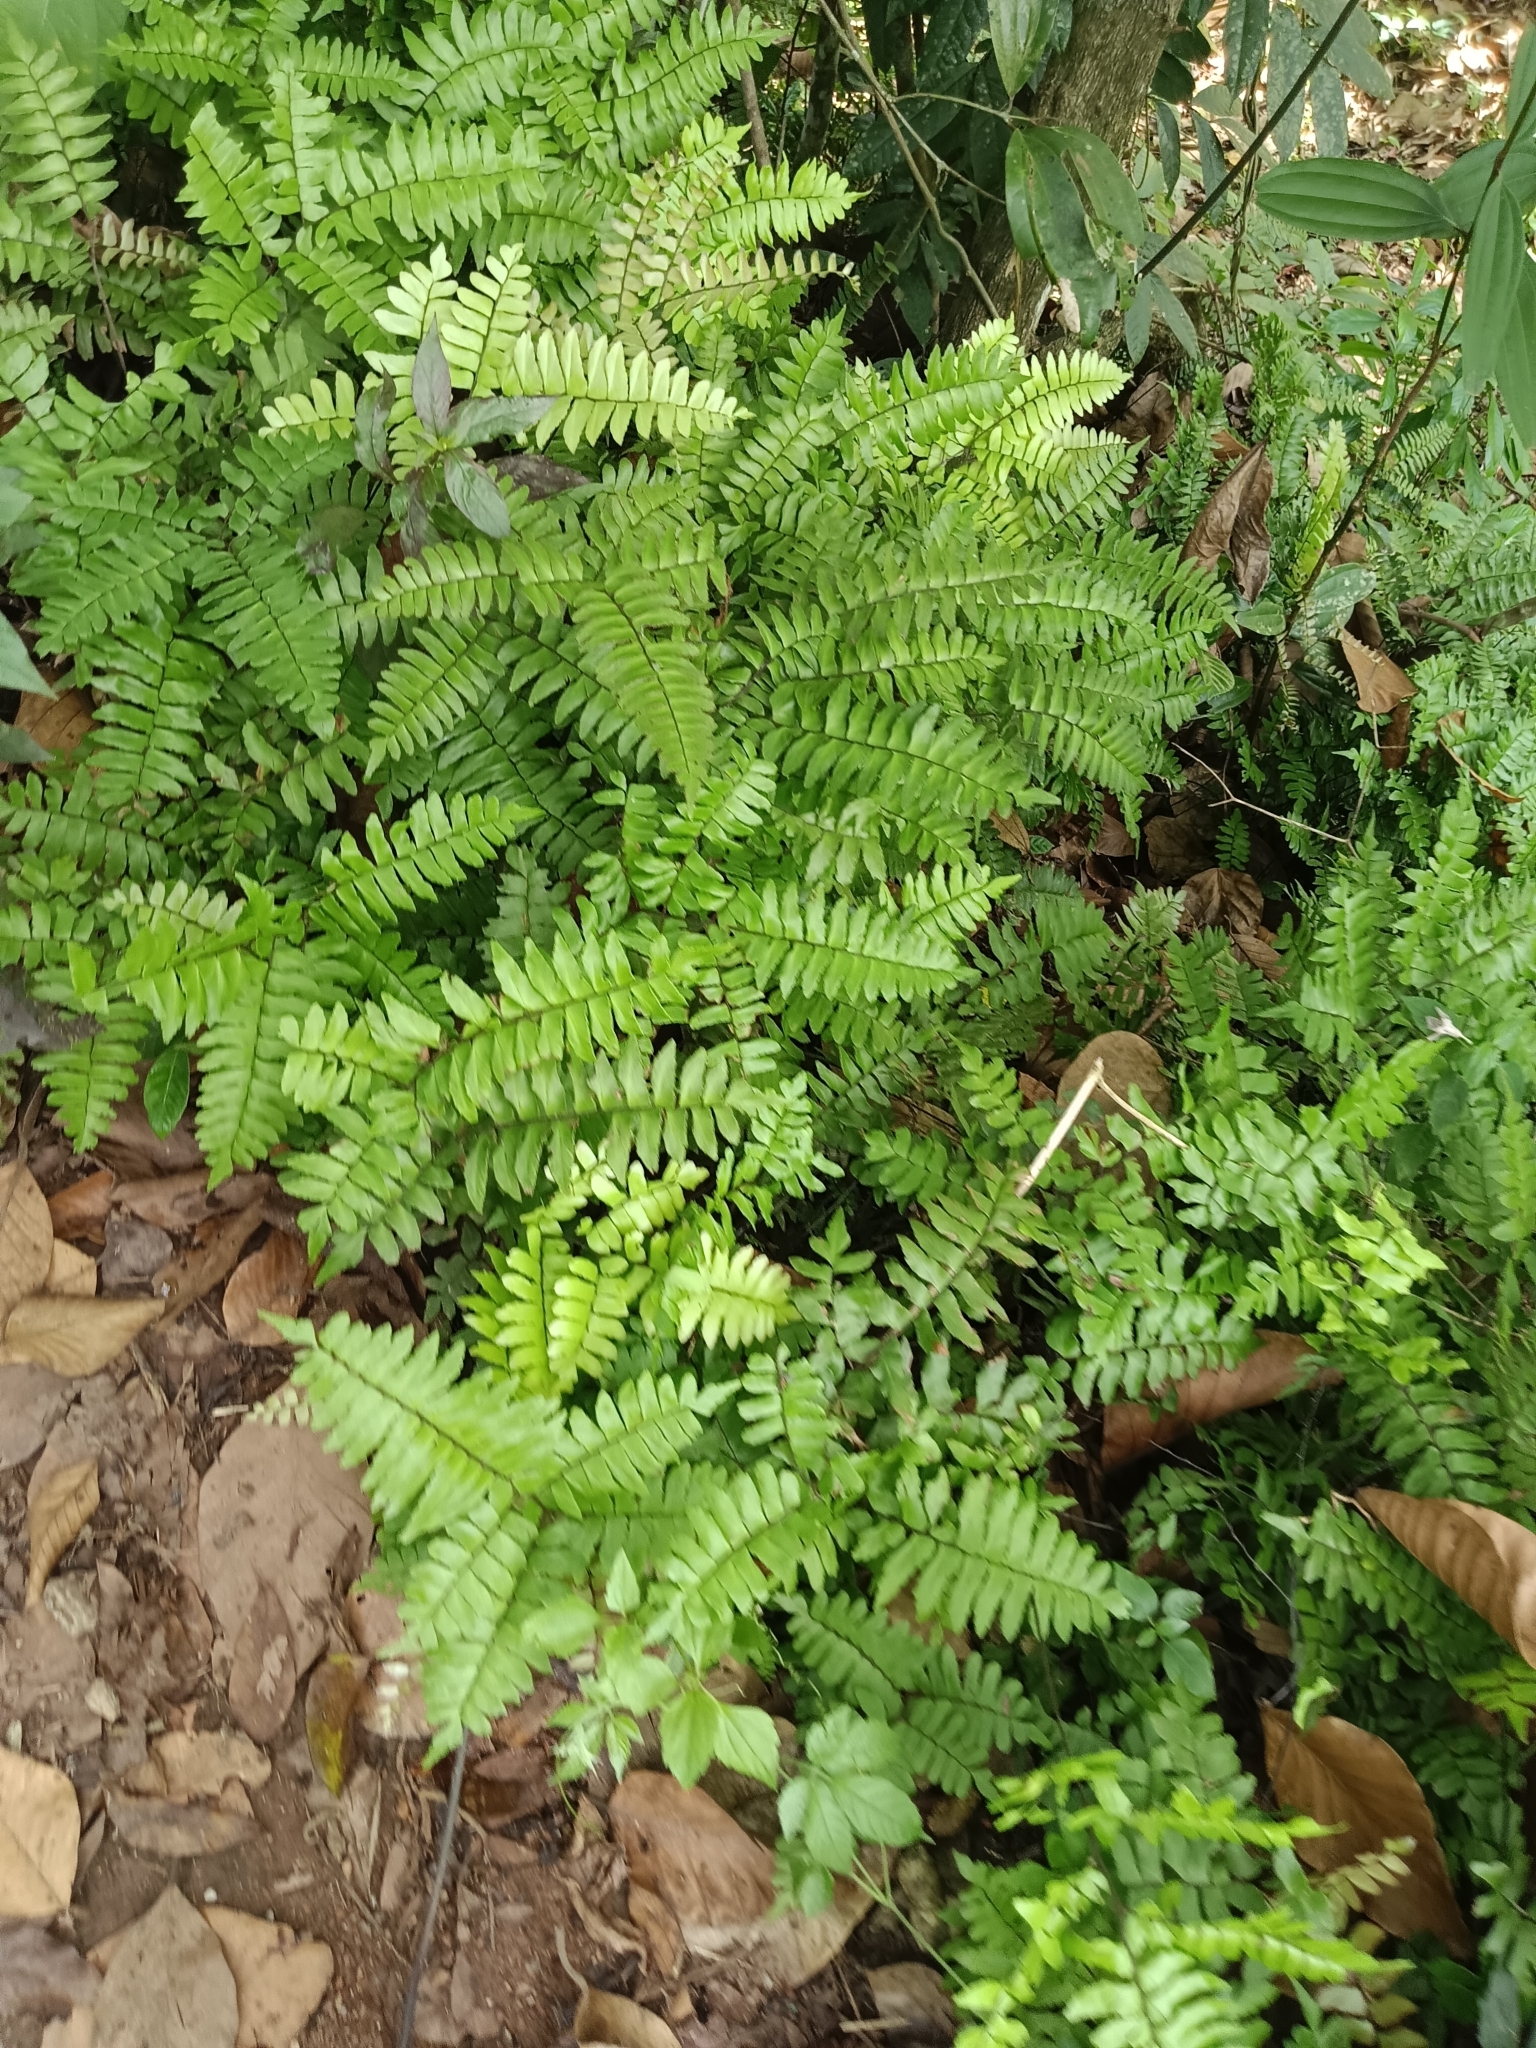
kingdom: Plantae
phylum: Tracheophyta
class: Polypodiopsida
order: Polypodiales
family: Pteridaceae
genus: Adiantum
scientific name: Adiantum latifolium
